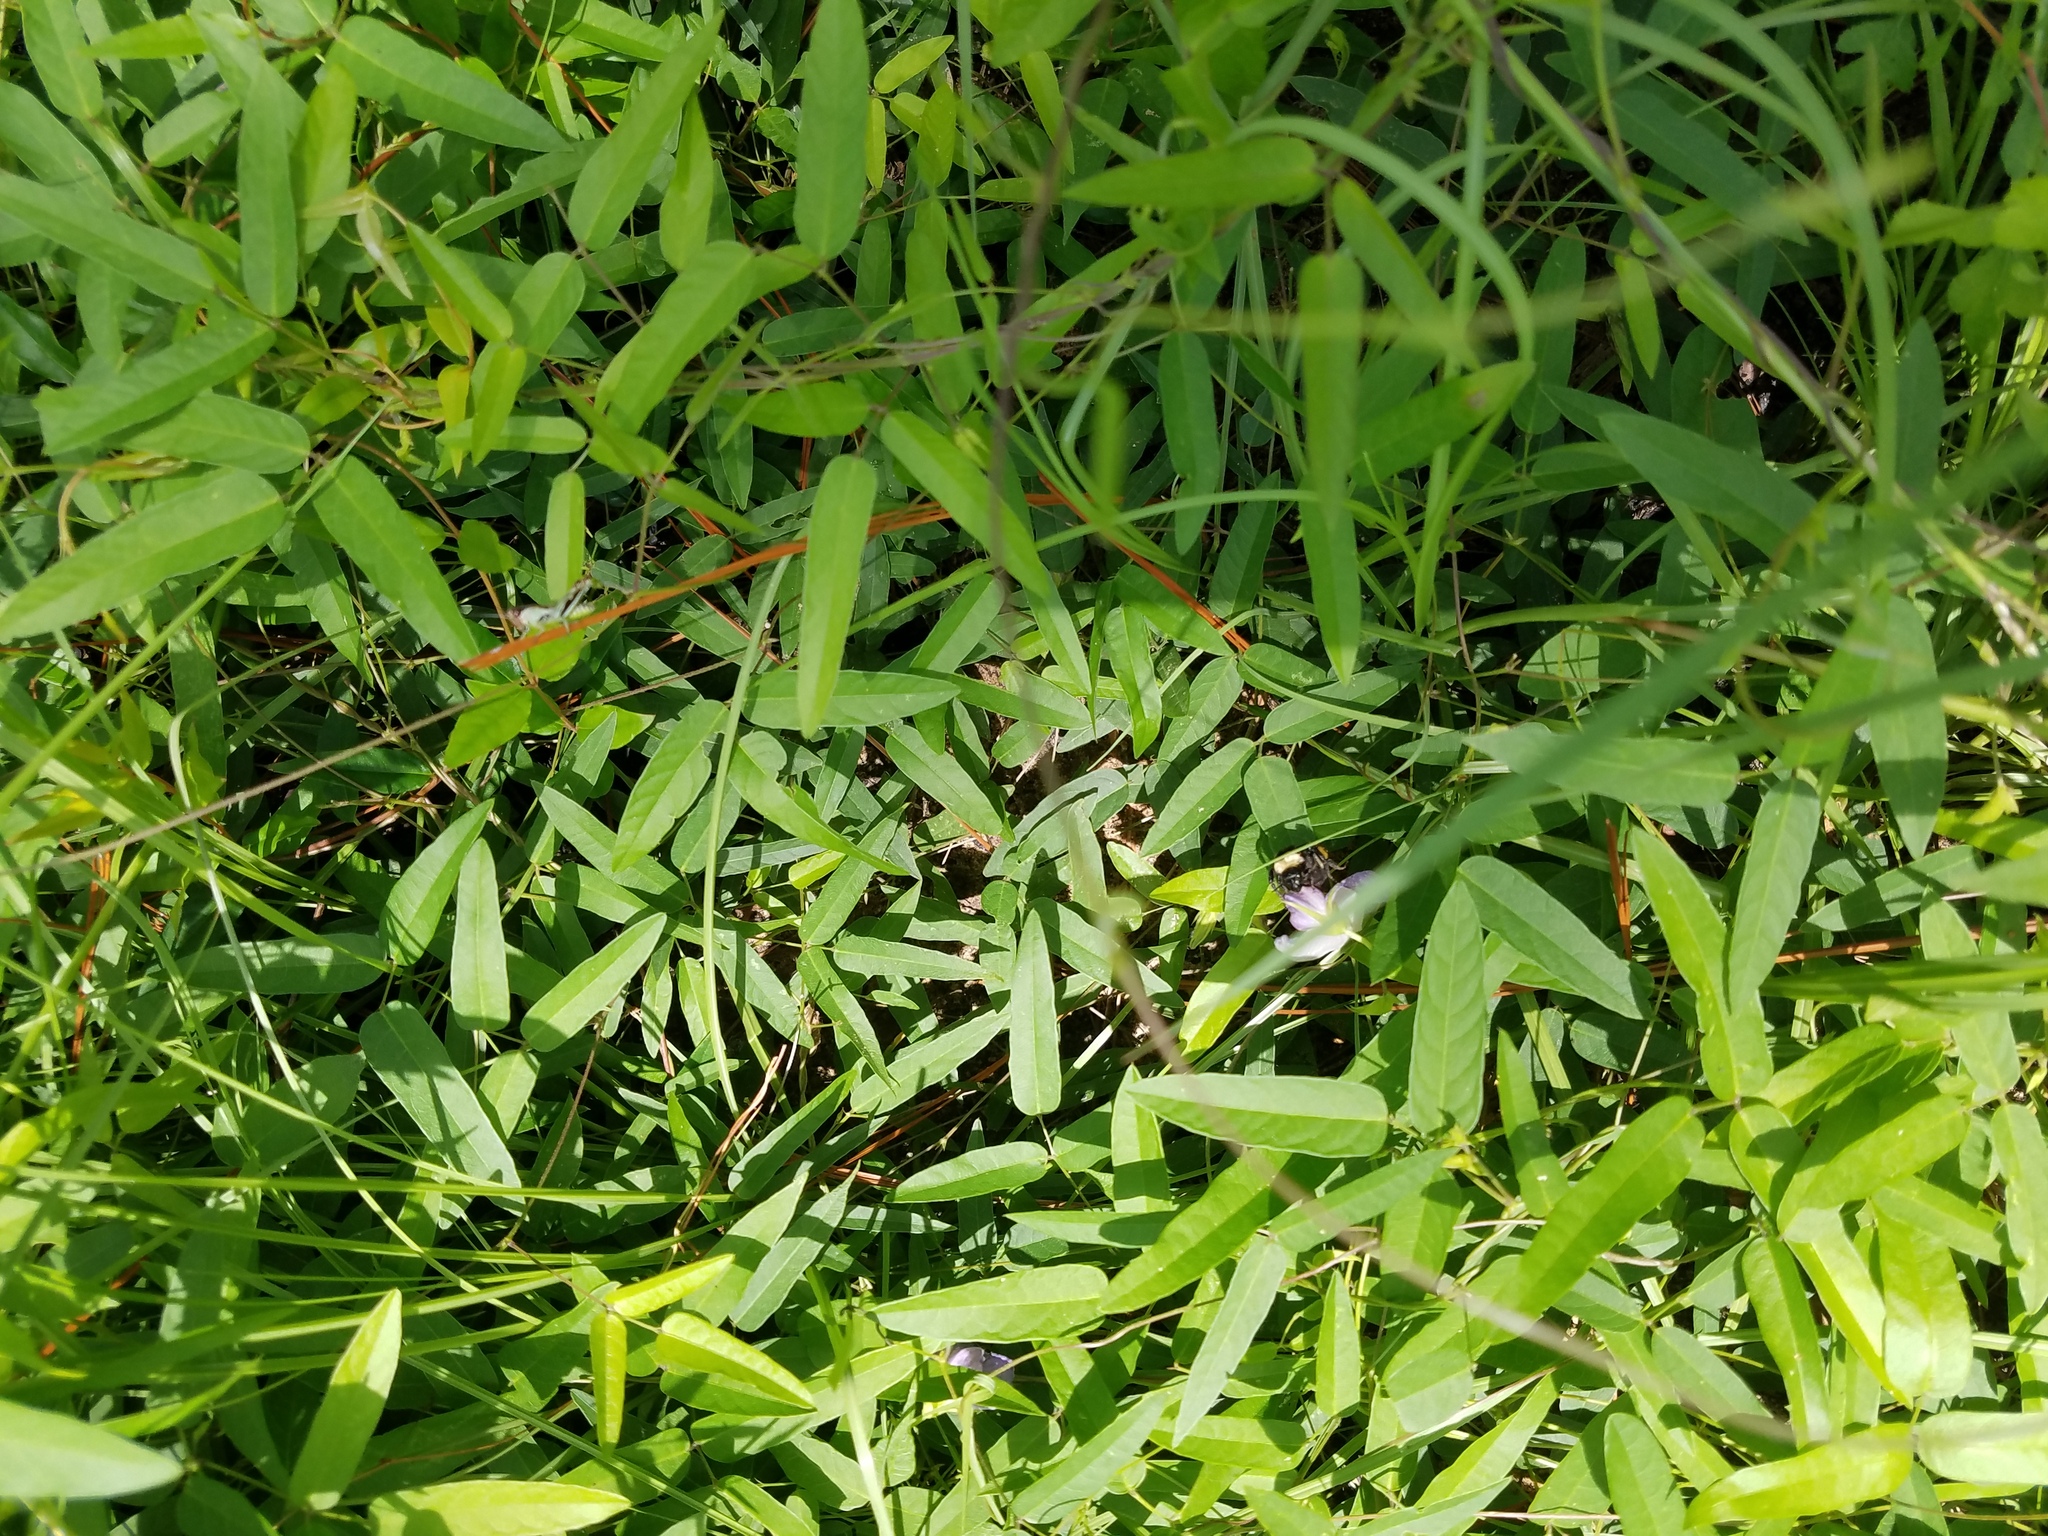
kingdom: Plantae
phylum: Tracheophyta
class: Magnoliopsida
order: Fabales
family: Fabaceae
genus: Centrosema
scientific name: Centrosema virginianum
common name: Butterfly-pea
